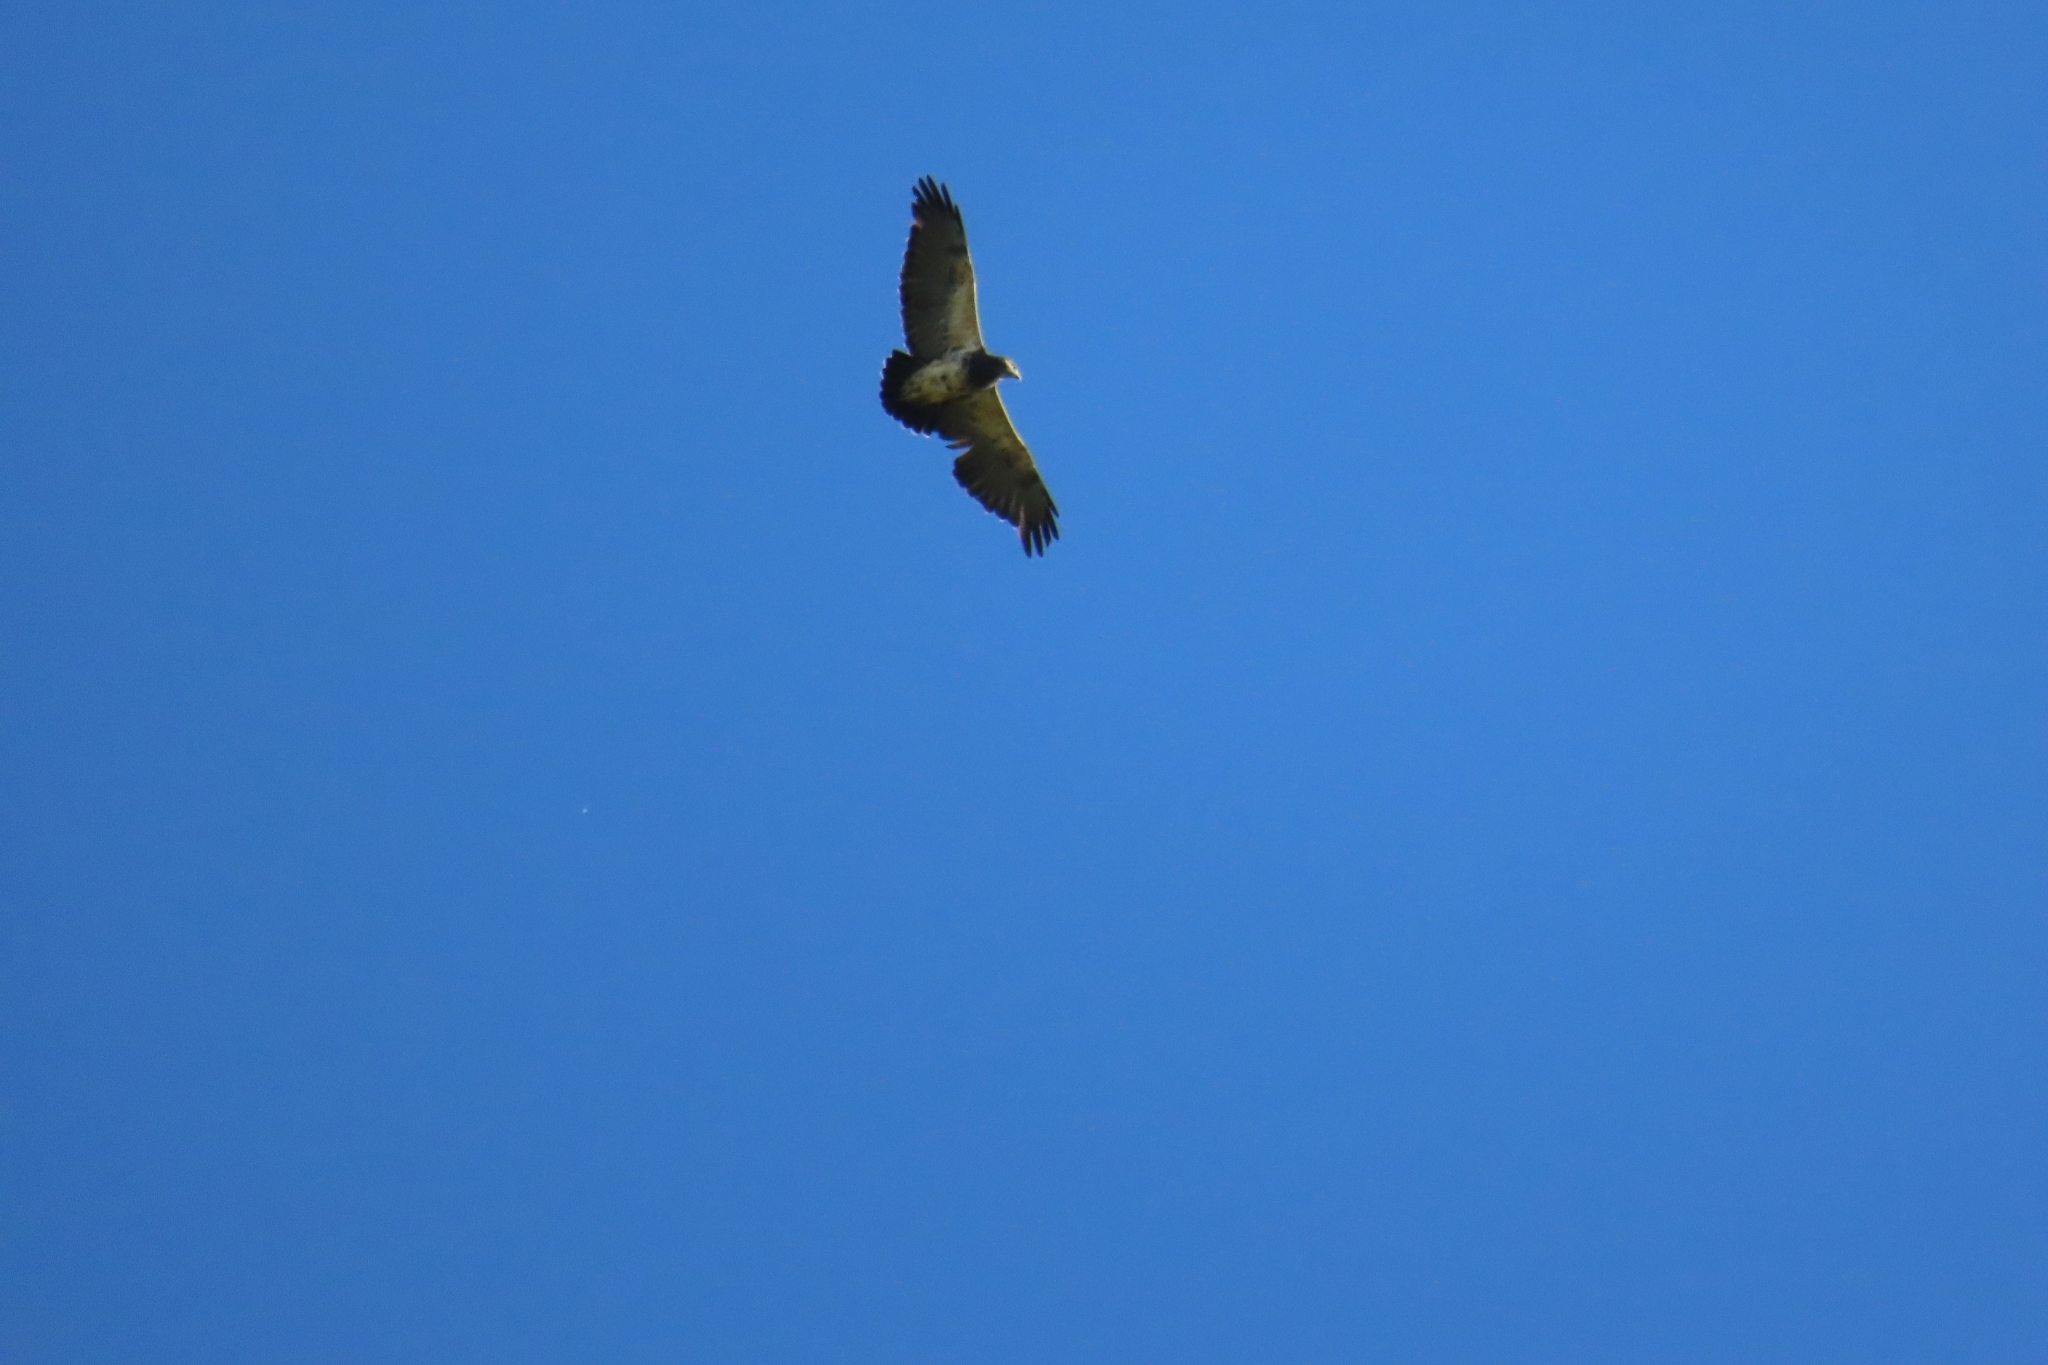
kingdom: Animalia
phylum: Chordata
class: Aves
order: Accipitriformes
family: Accipitridae
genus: Geranoaetus
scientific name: Geranoaetus melanoleucus
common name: Black-chested buzzard-eagle
